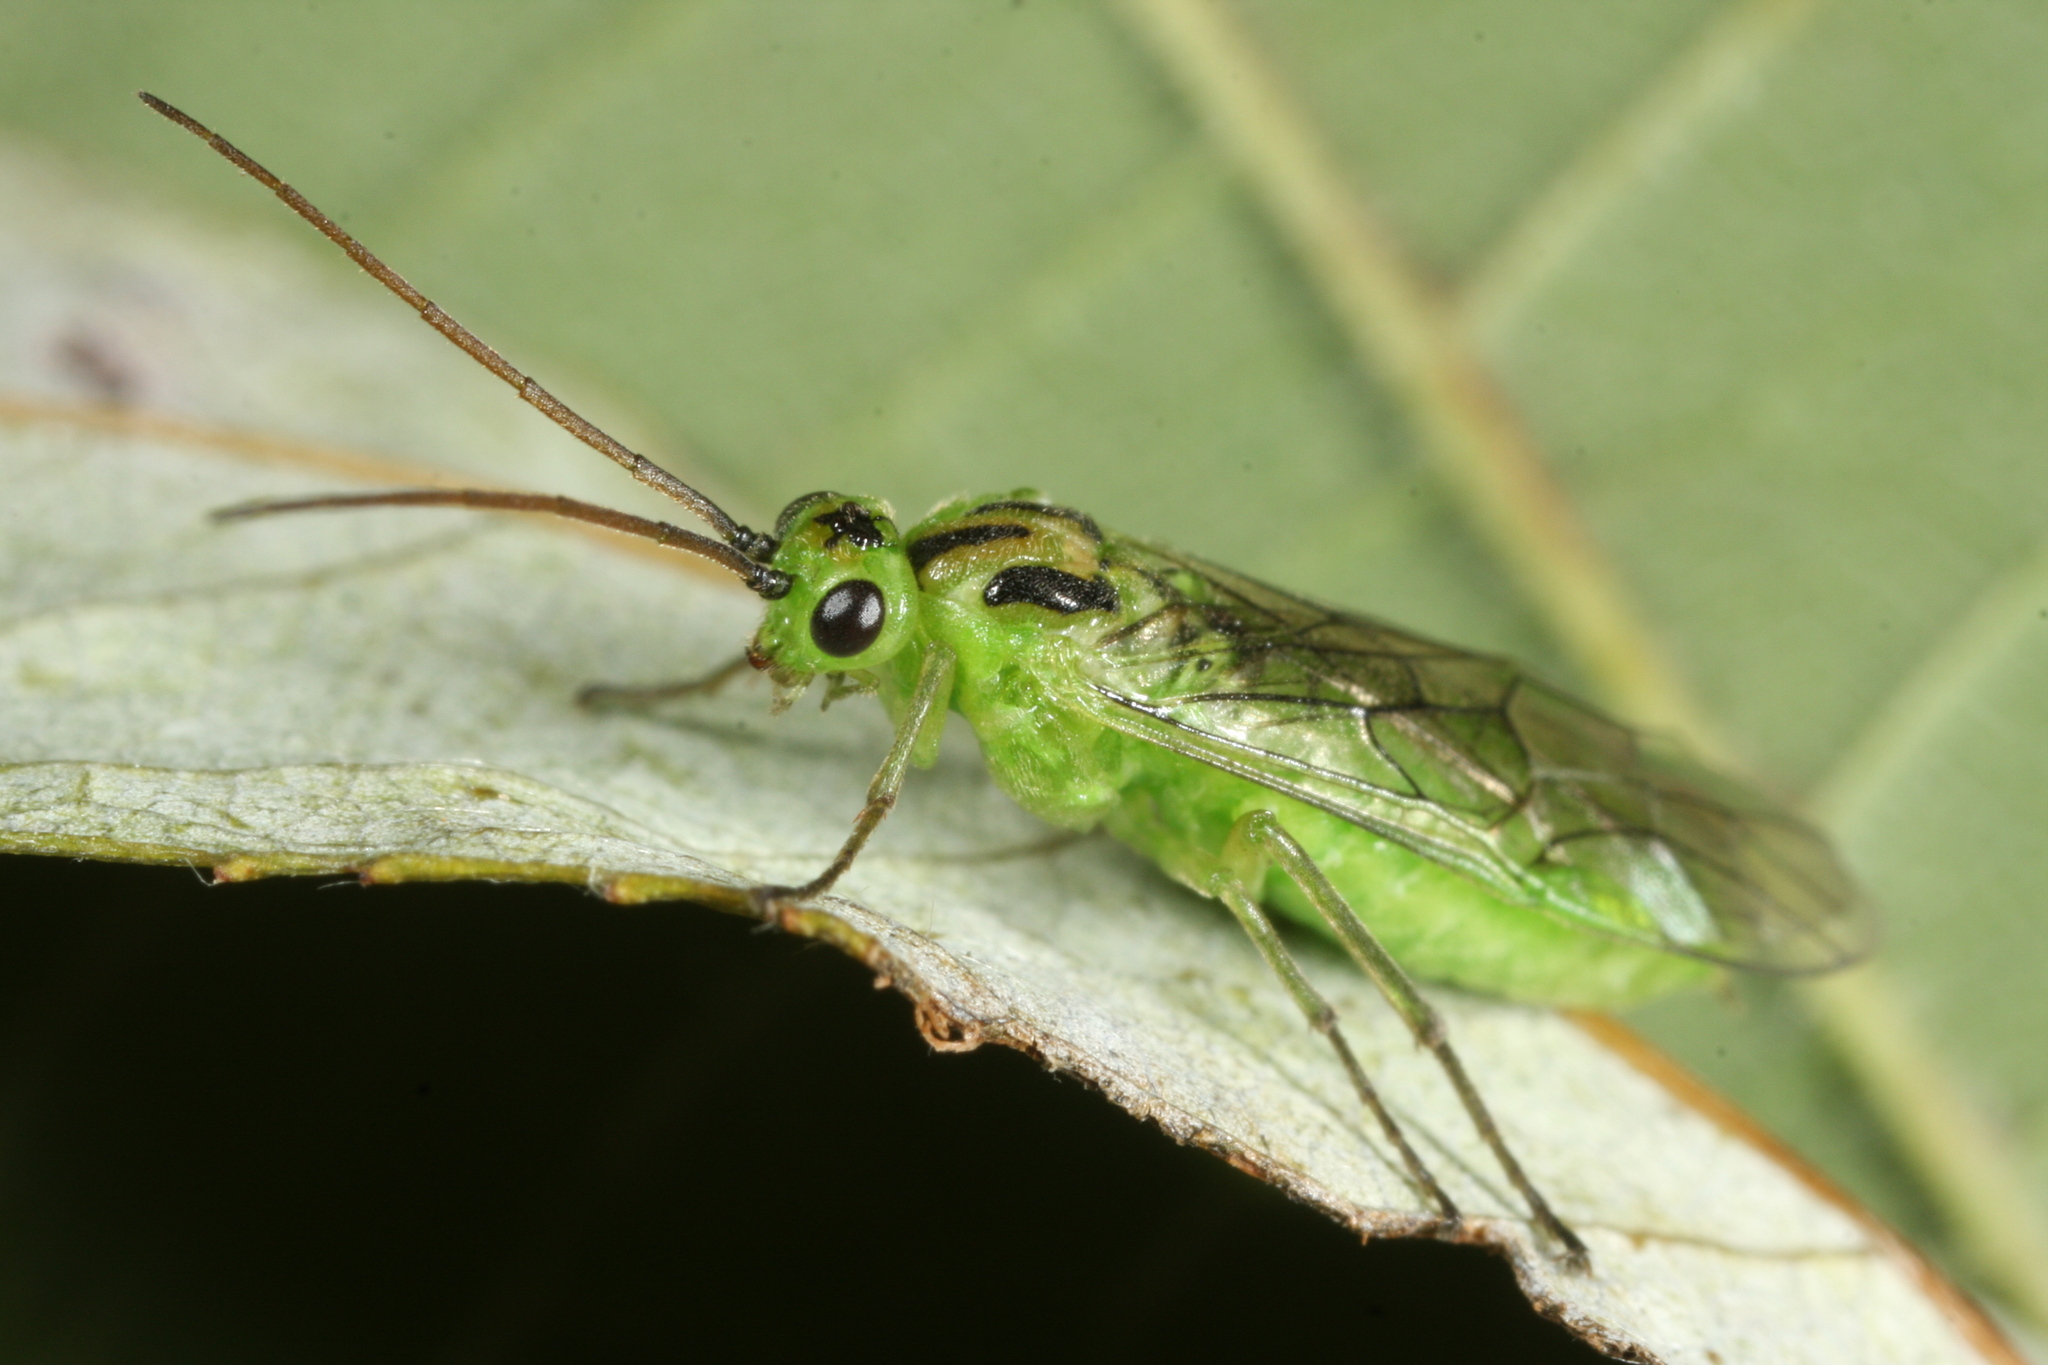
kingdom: Animalia
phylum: Arthropoda
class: Insecta
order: Hymenoptera
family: Tenthredinidae
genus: Euura
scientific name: Euura bergmanni
